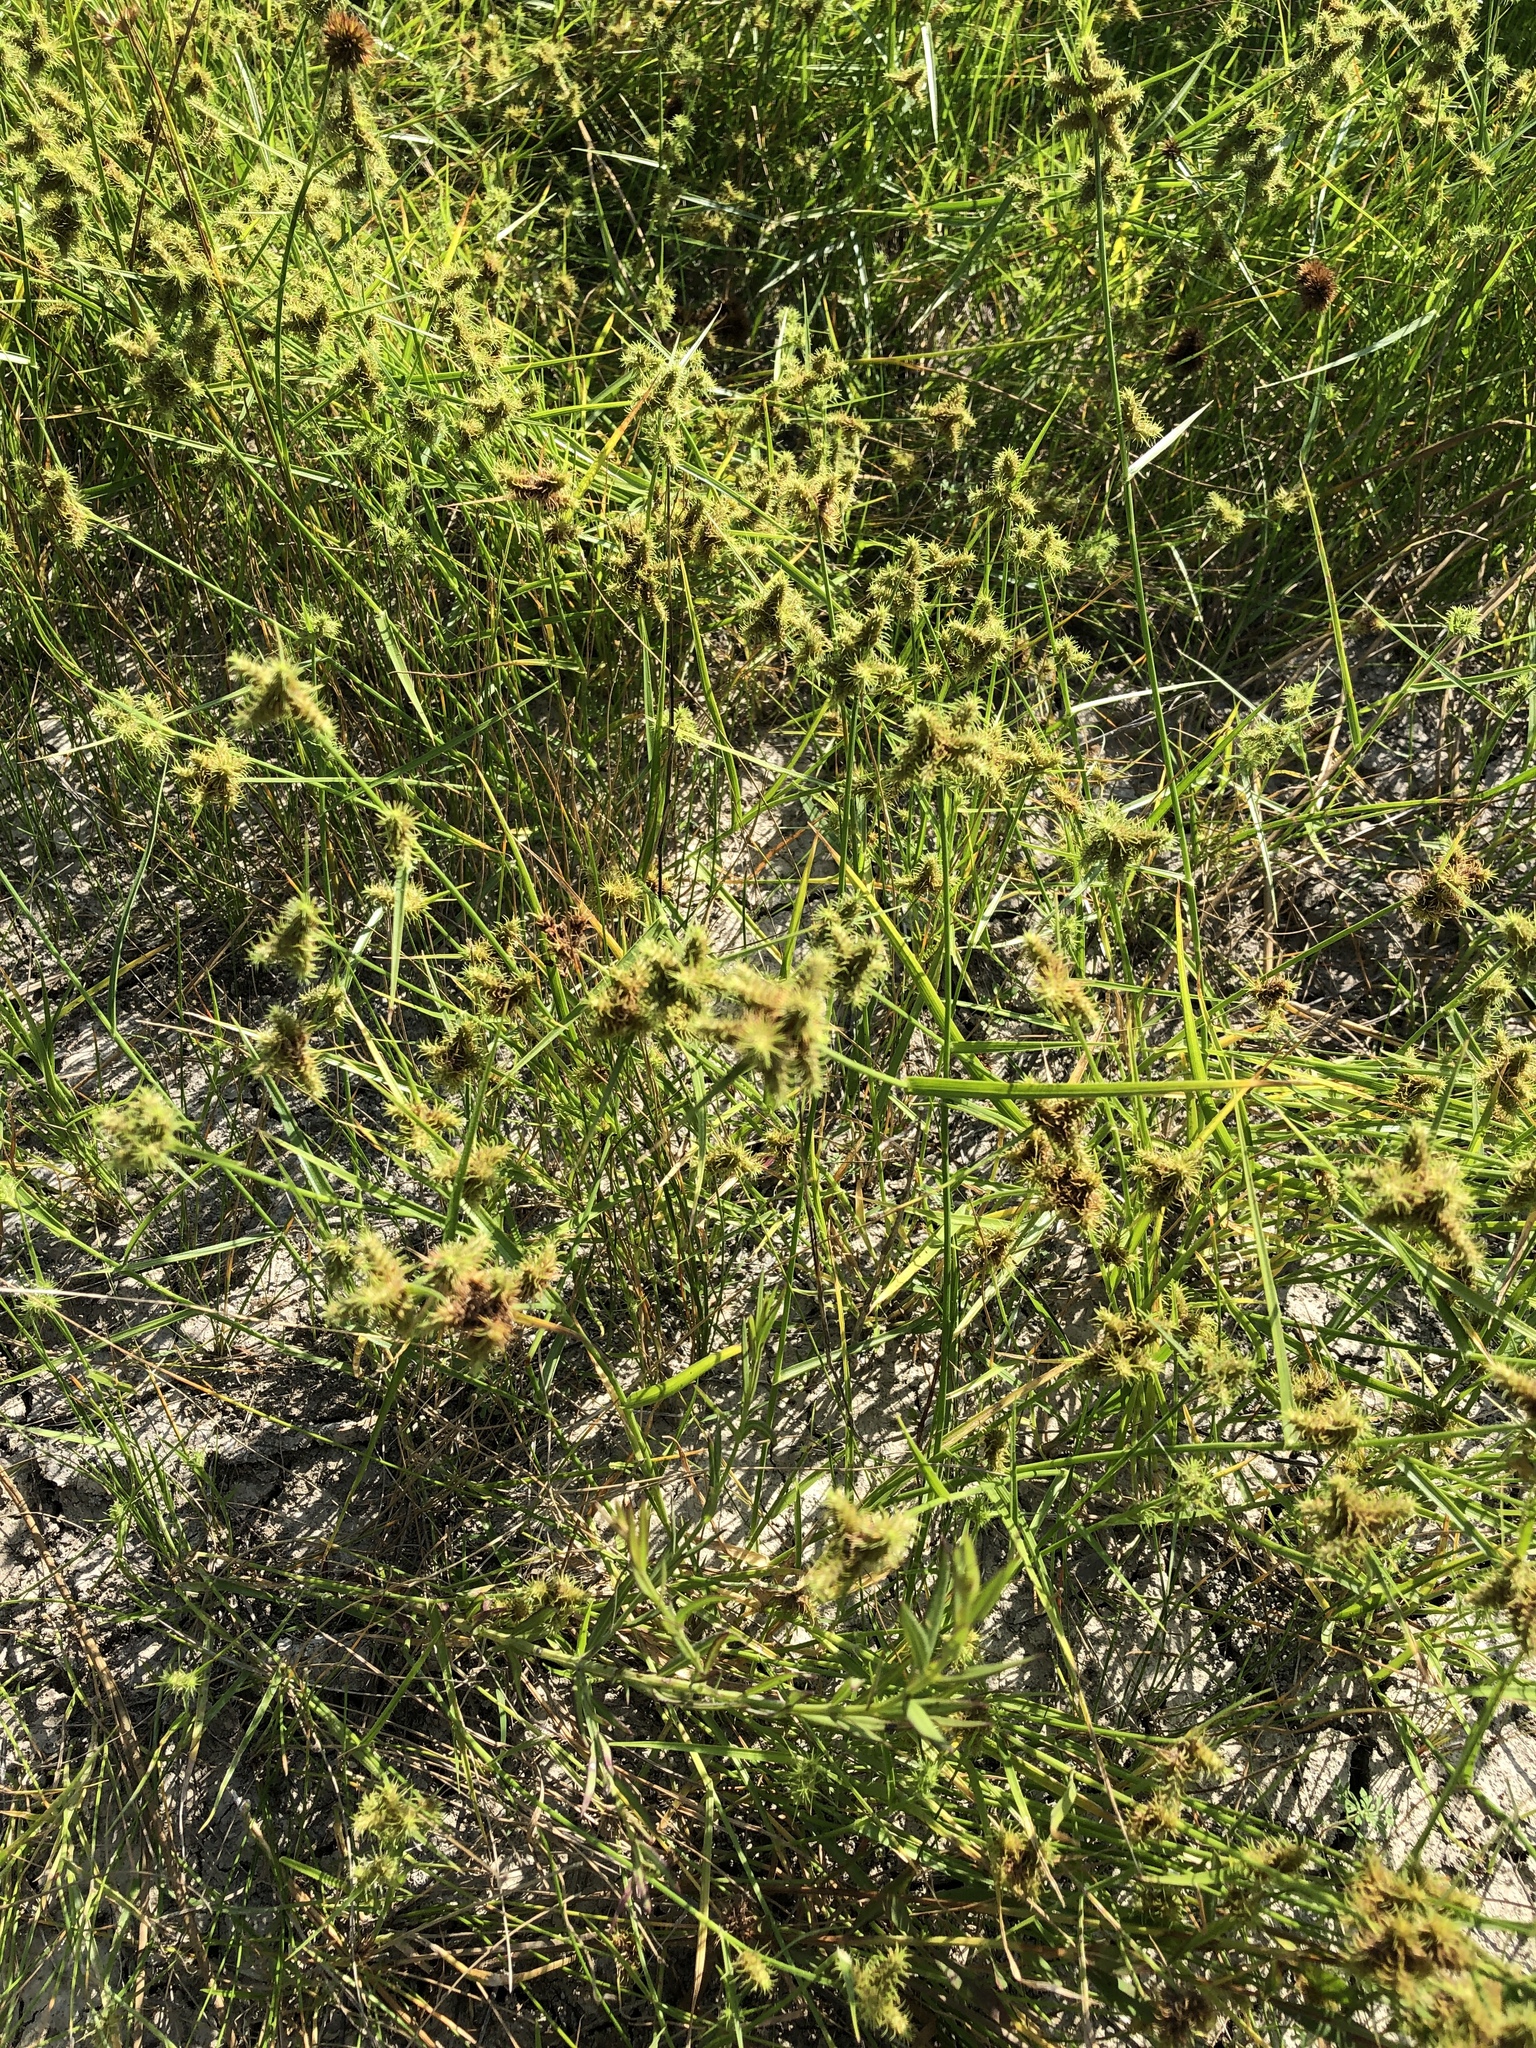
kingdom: Plantae
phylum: Tracheophyta
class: Liliopsida
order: Poales
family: Cyperaceae
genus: Fuirena
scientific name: Fuirena simplex
